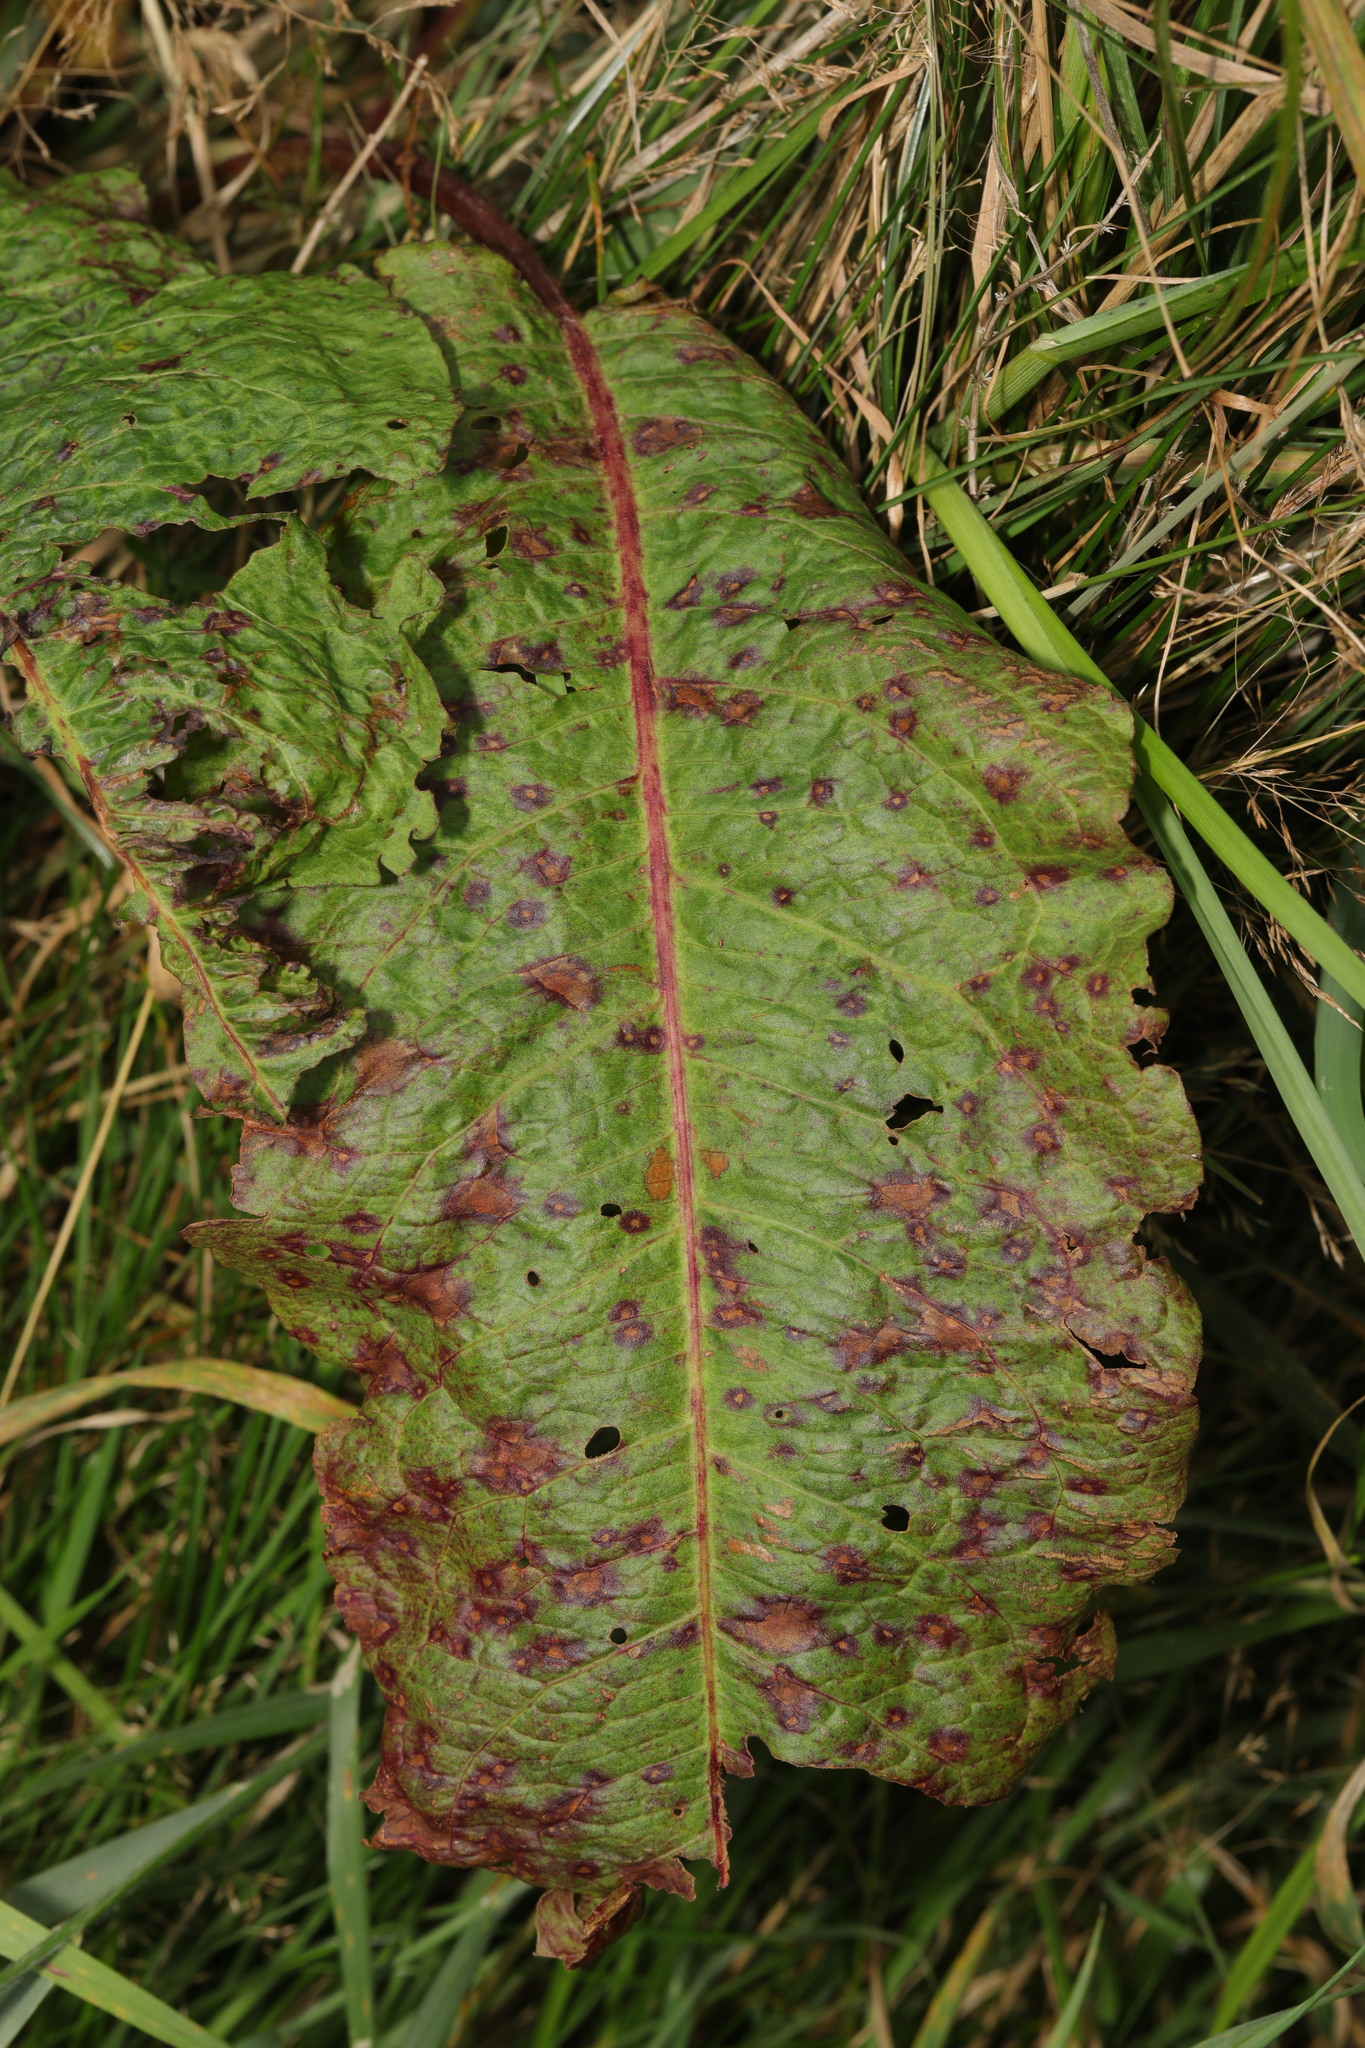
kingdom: Fungi
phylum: Ascomycota
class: Dothideomycetes
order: Mycosphaerellales
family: Mycosphaerellaceae
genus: Ramularia
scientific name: Ramularia rubella
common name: Red dock spot
